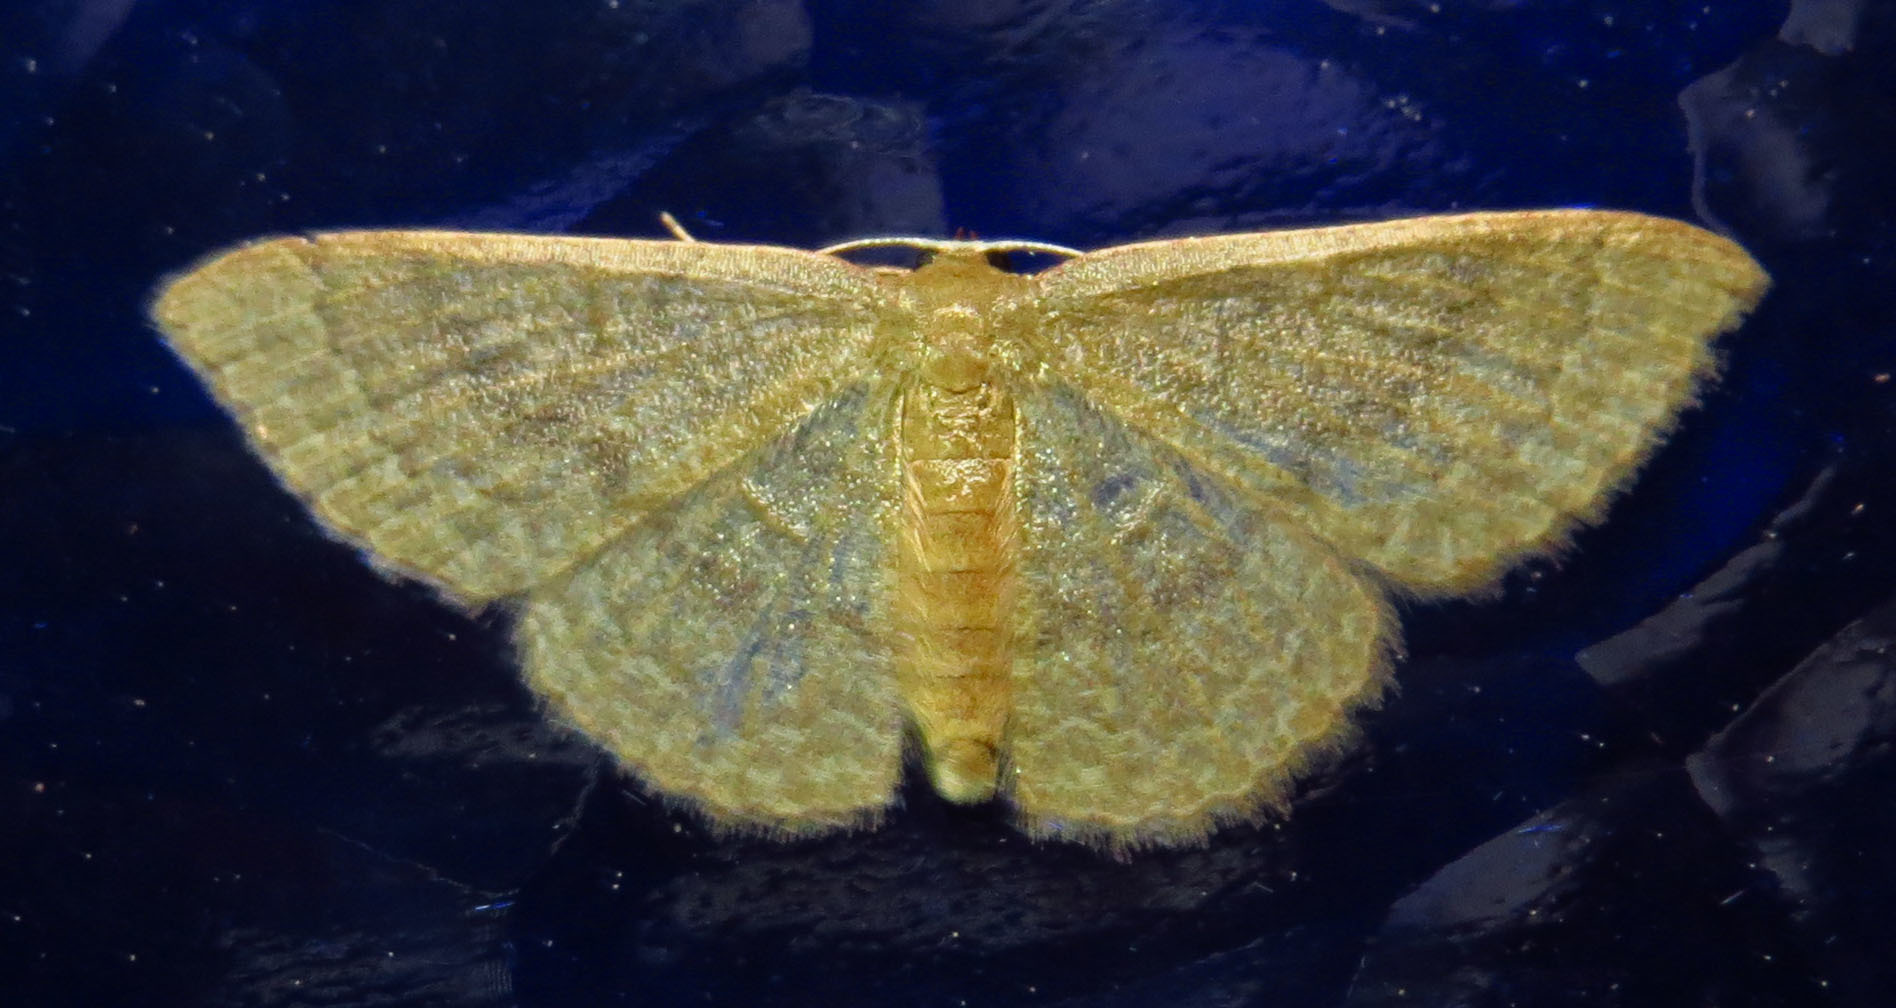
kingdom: Animalia
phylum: Arthropoda
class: Insecta
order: Lepidoptera
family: Geometridae
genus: Pleuroprucha
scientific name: Pleuroprucha insulsaria
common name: Common tan wave
